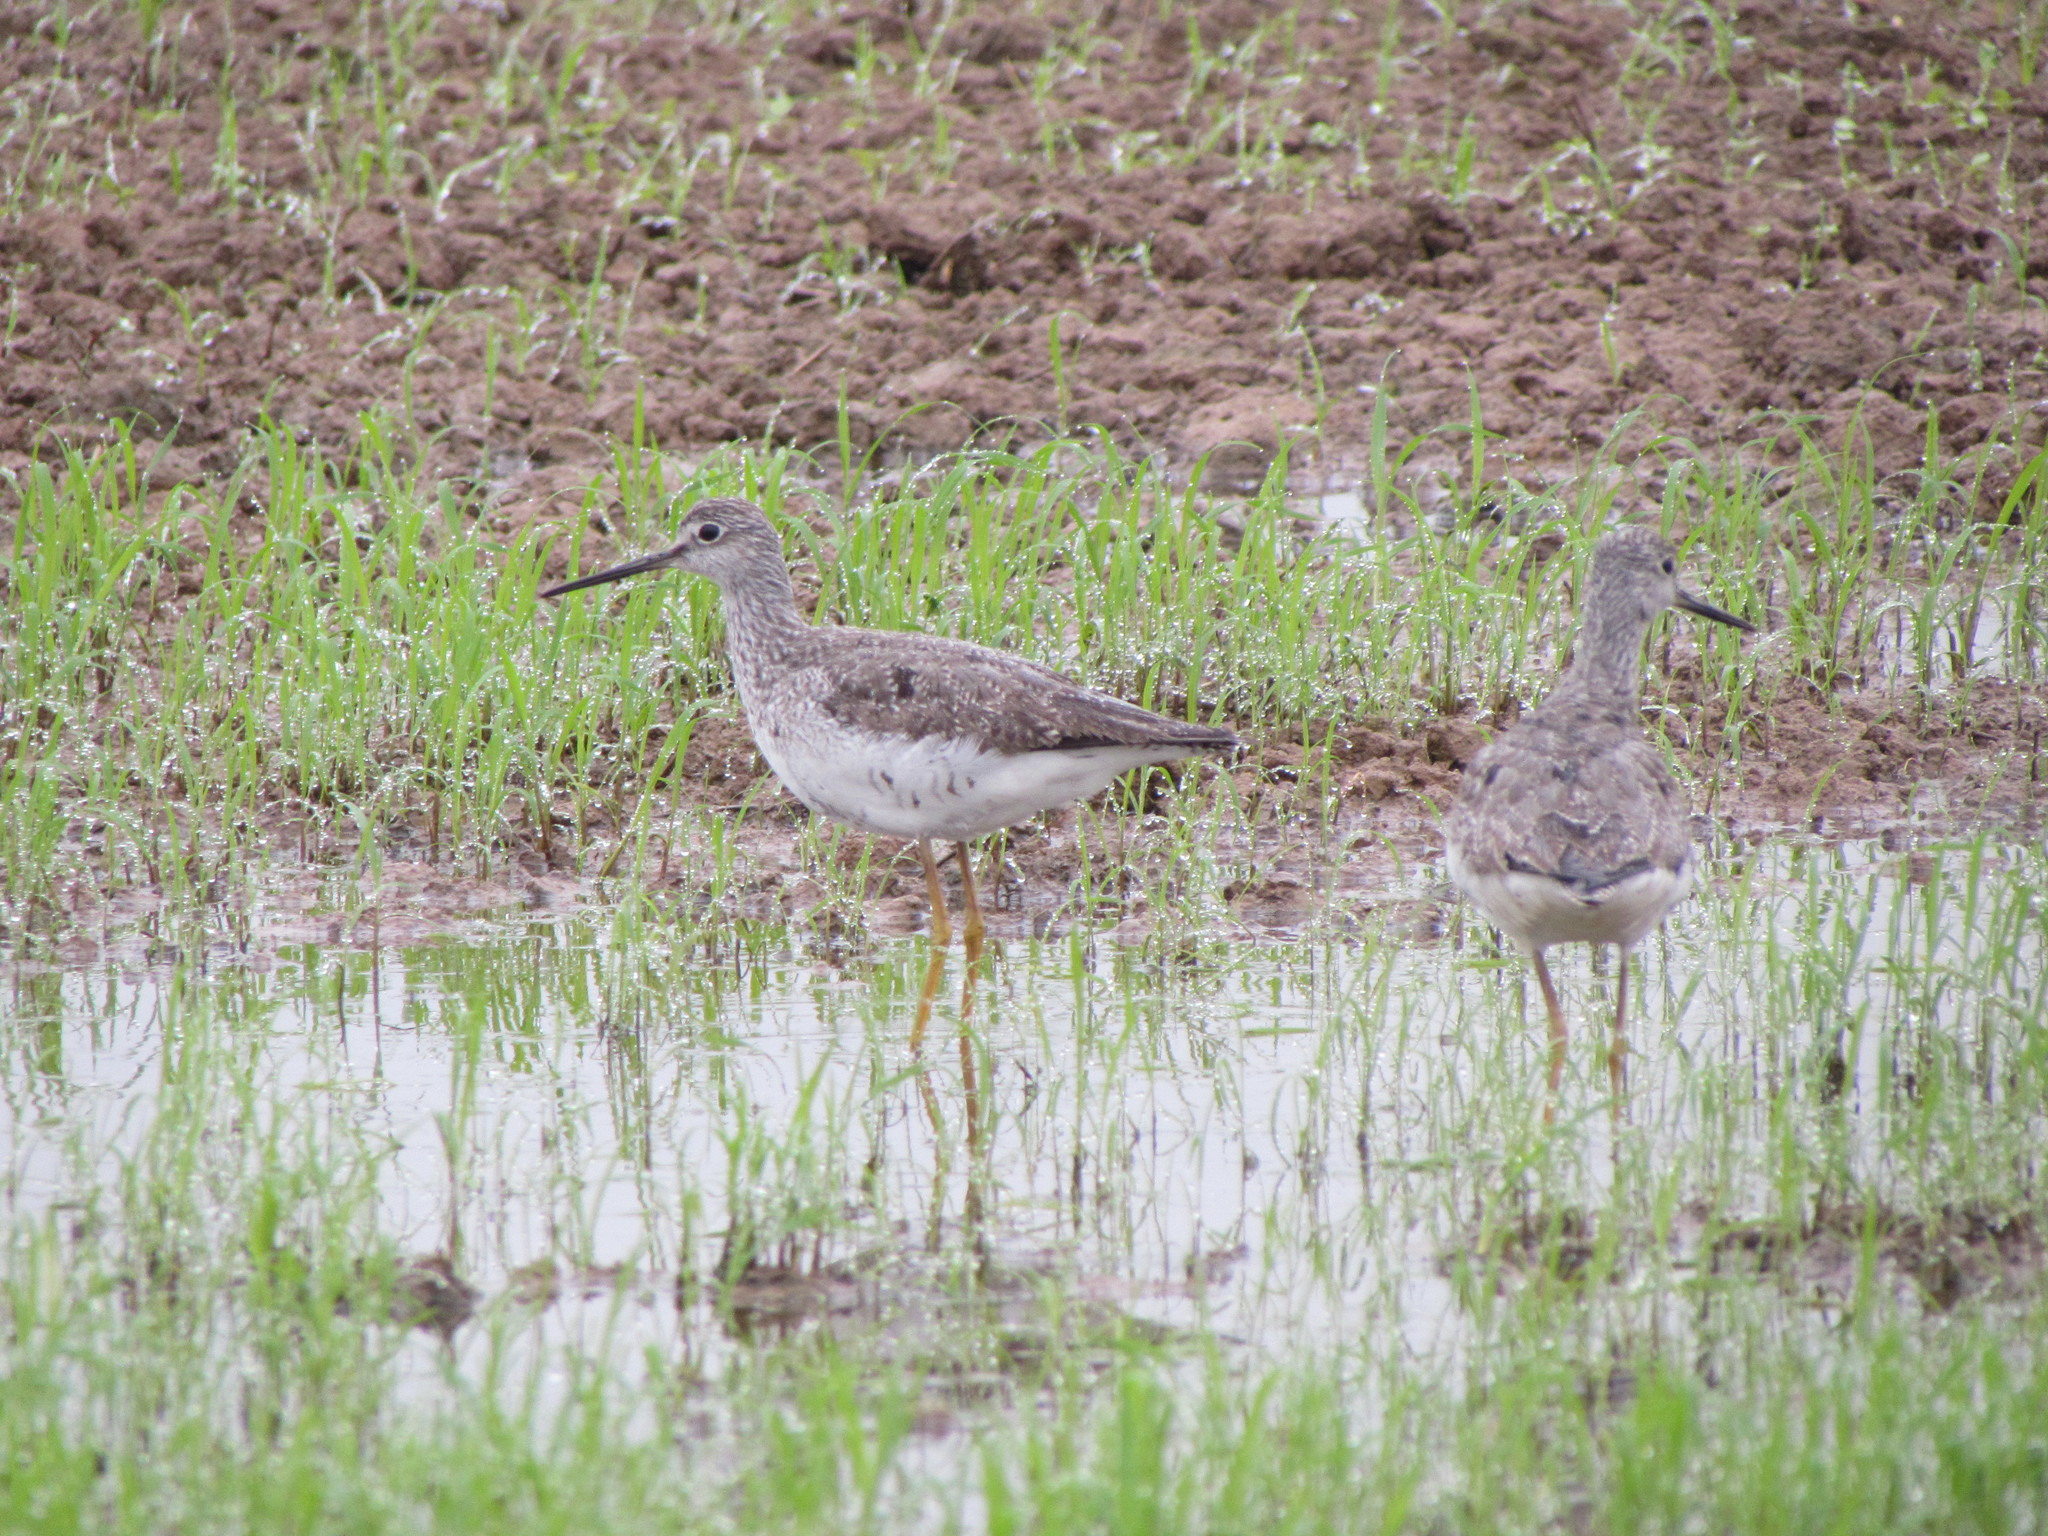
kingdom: Animalia
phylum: Chordata
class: Aves
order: Charadriiformes
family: Scolopacidae
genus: Tringa
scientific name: Tringa melanoleuca
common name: Greater yellowlegs
